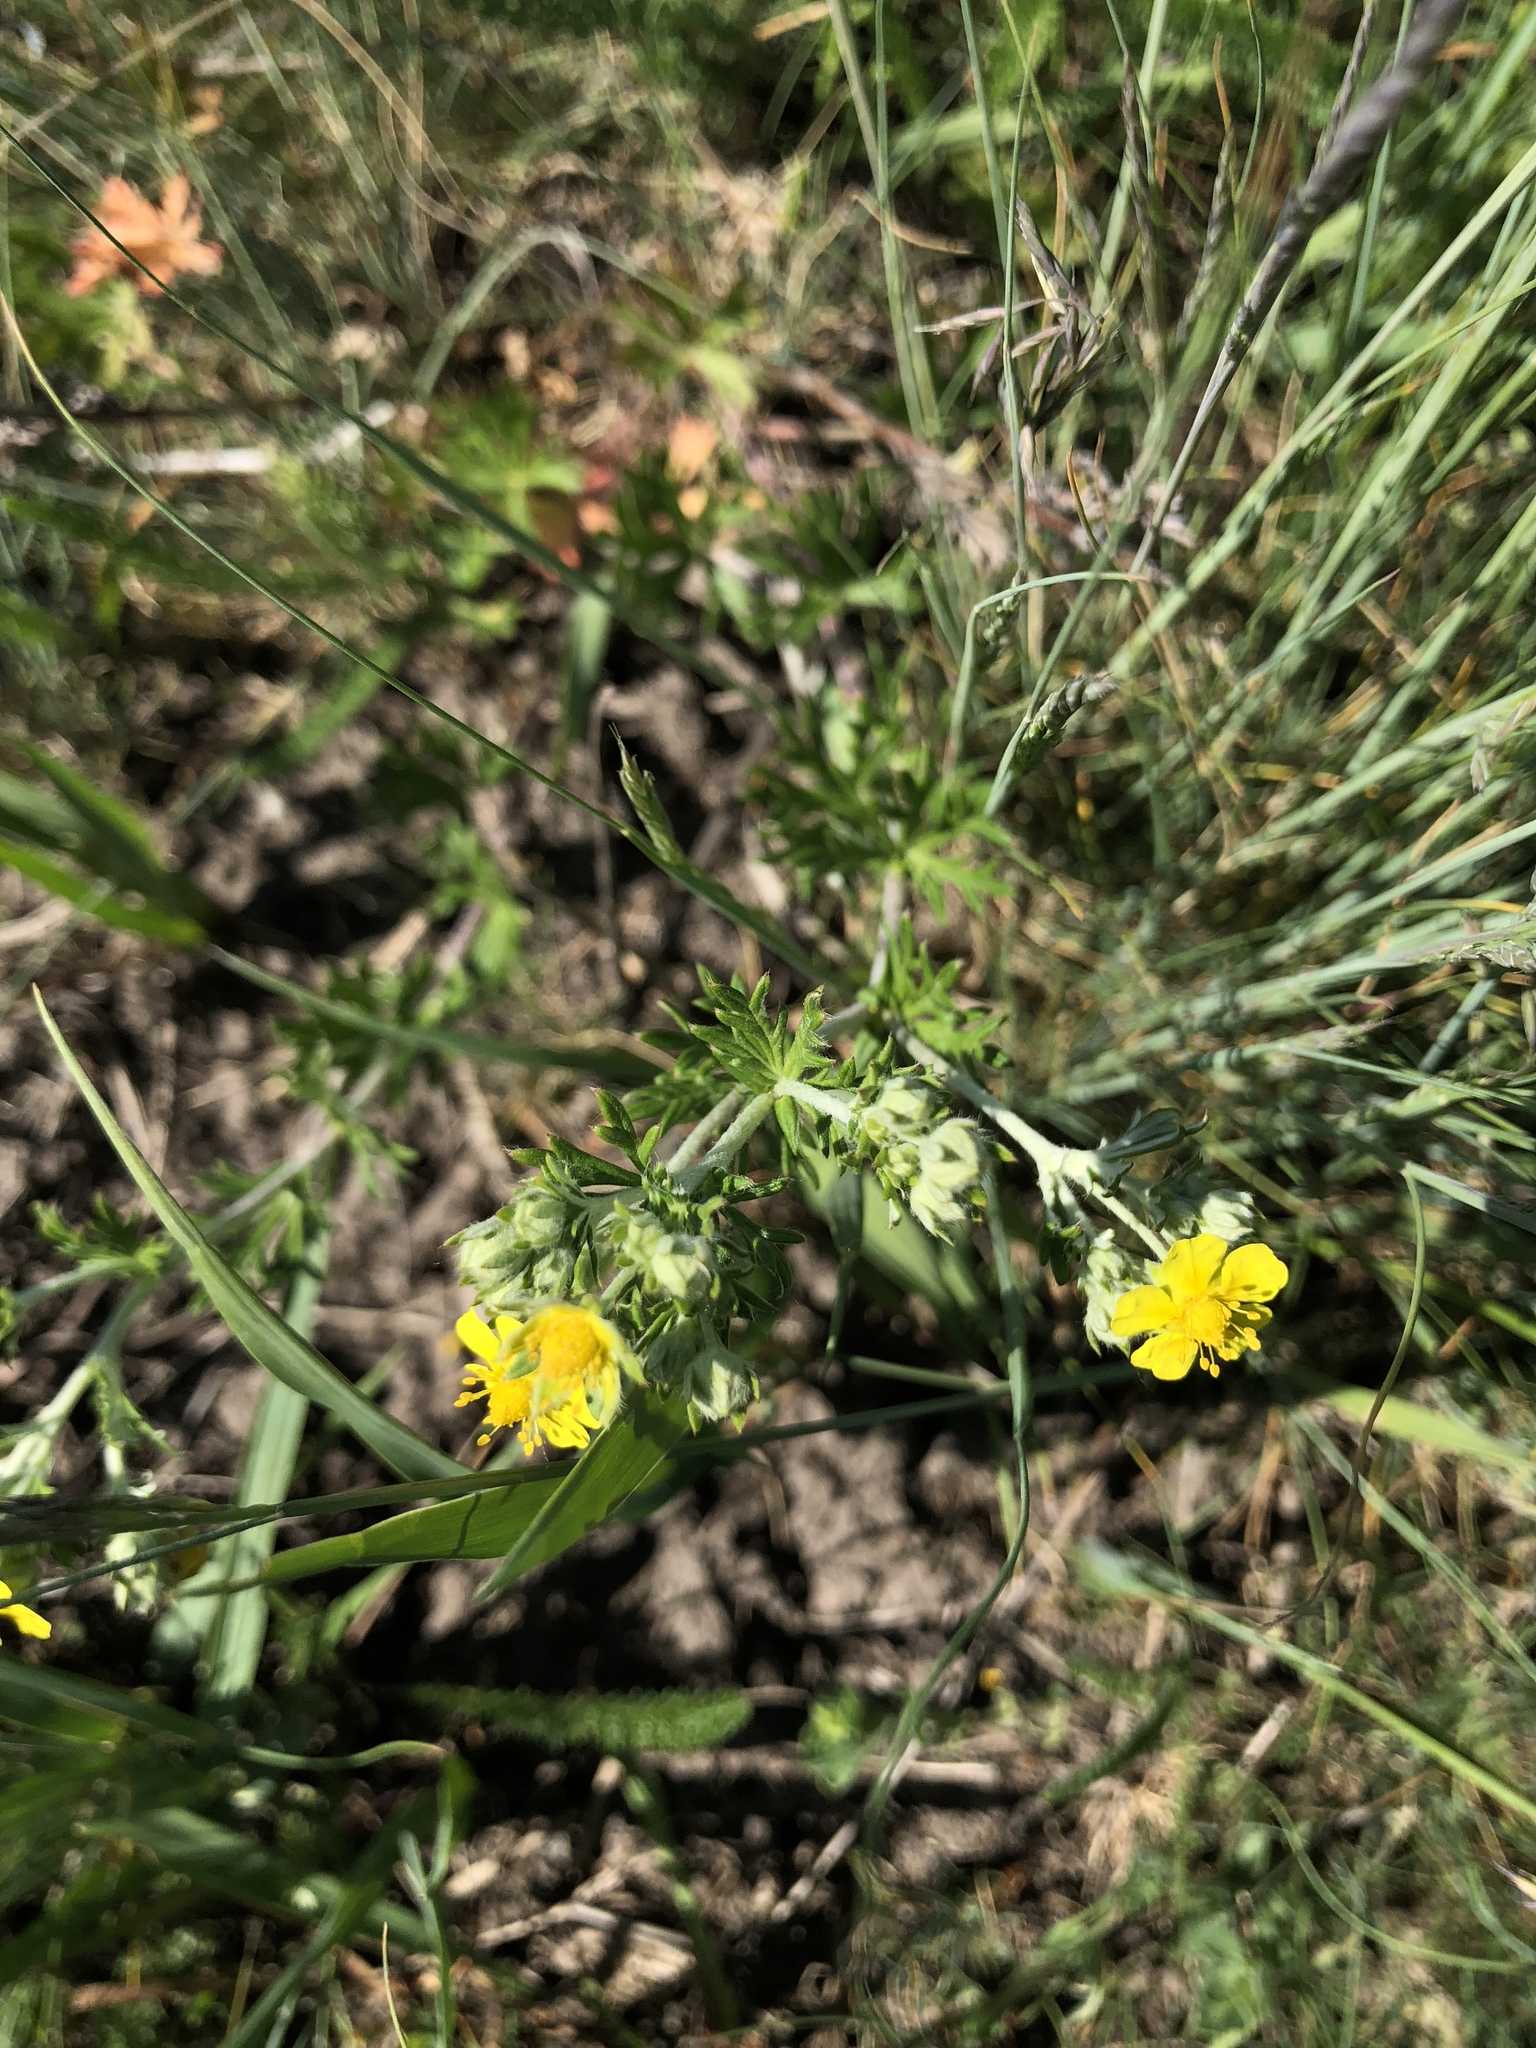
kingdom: Plantae
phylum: Tracheophyta
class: Magnoliopsida
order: Rosales
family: Rosaceae
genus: Potentilla
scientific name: Potentilla argentea
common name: Hoary cinquefoil
